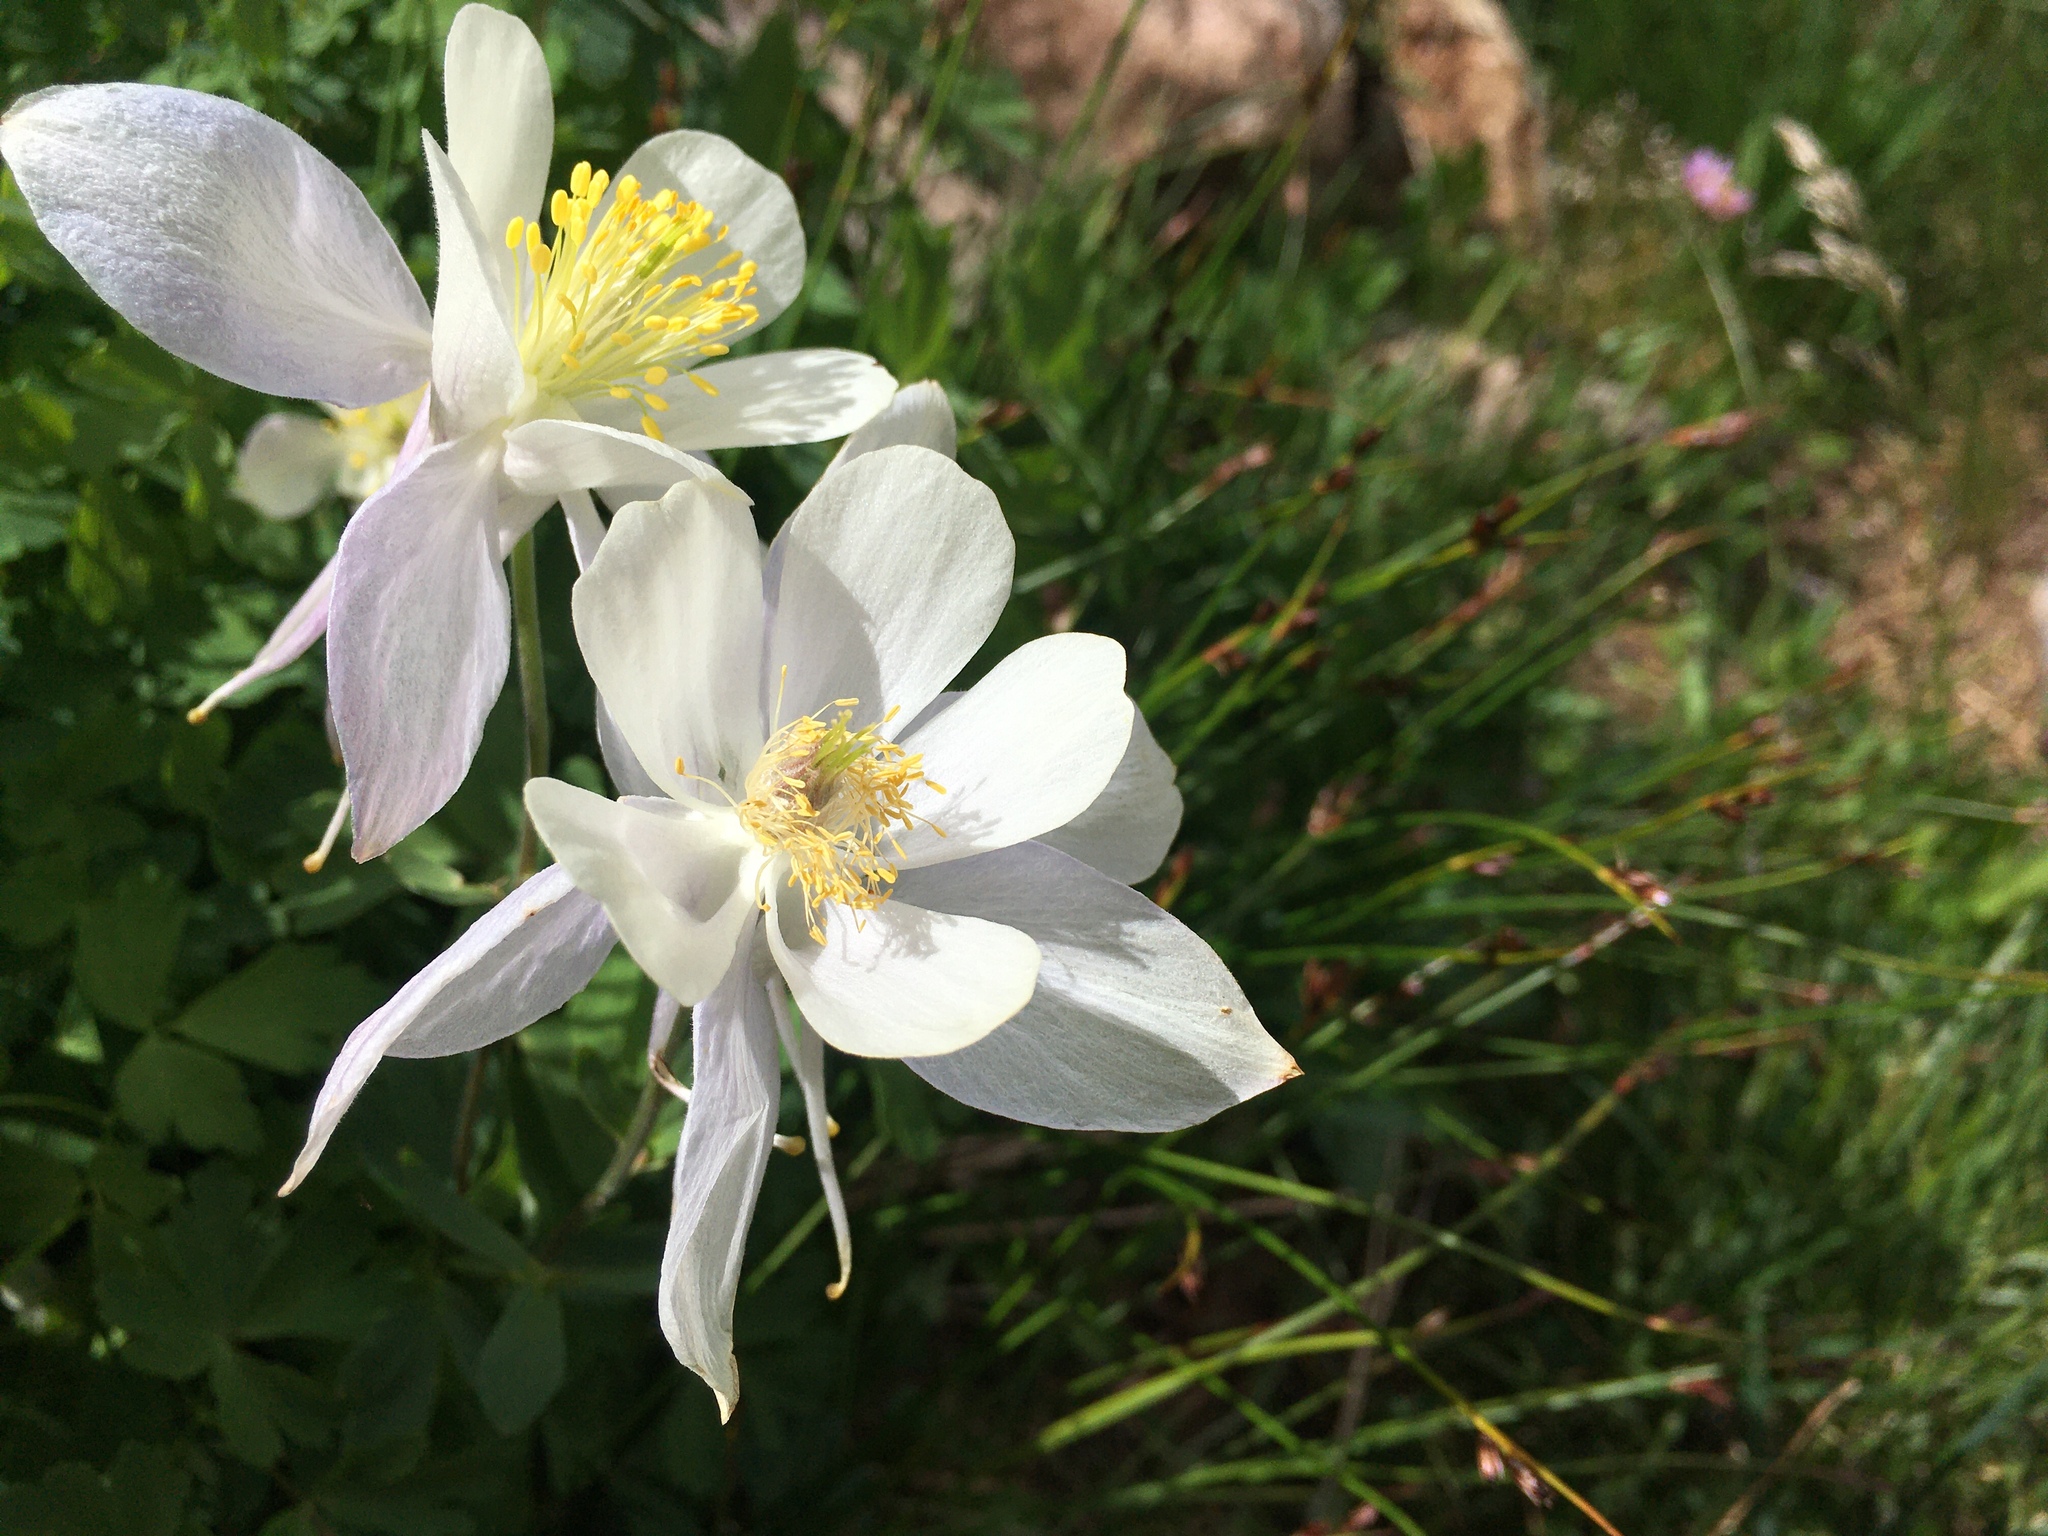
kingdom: Plantae
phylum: Tracheophyta
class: Magnoliopsida
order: Ranunculales
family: Ranunculaceae
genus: Aquilegia
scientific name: Aquilegia coerulea
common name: Rocky mountain columbine
